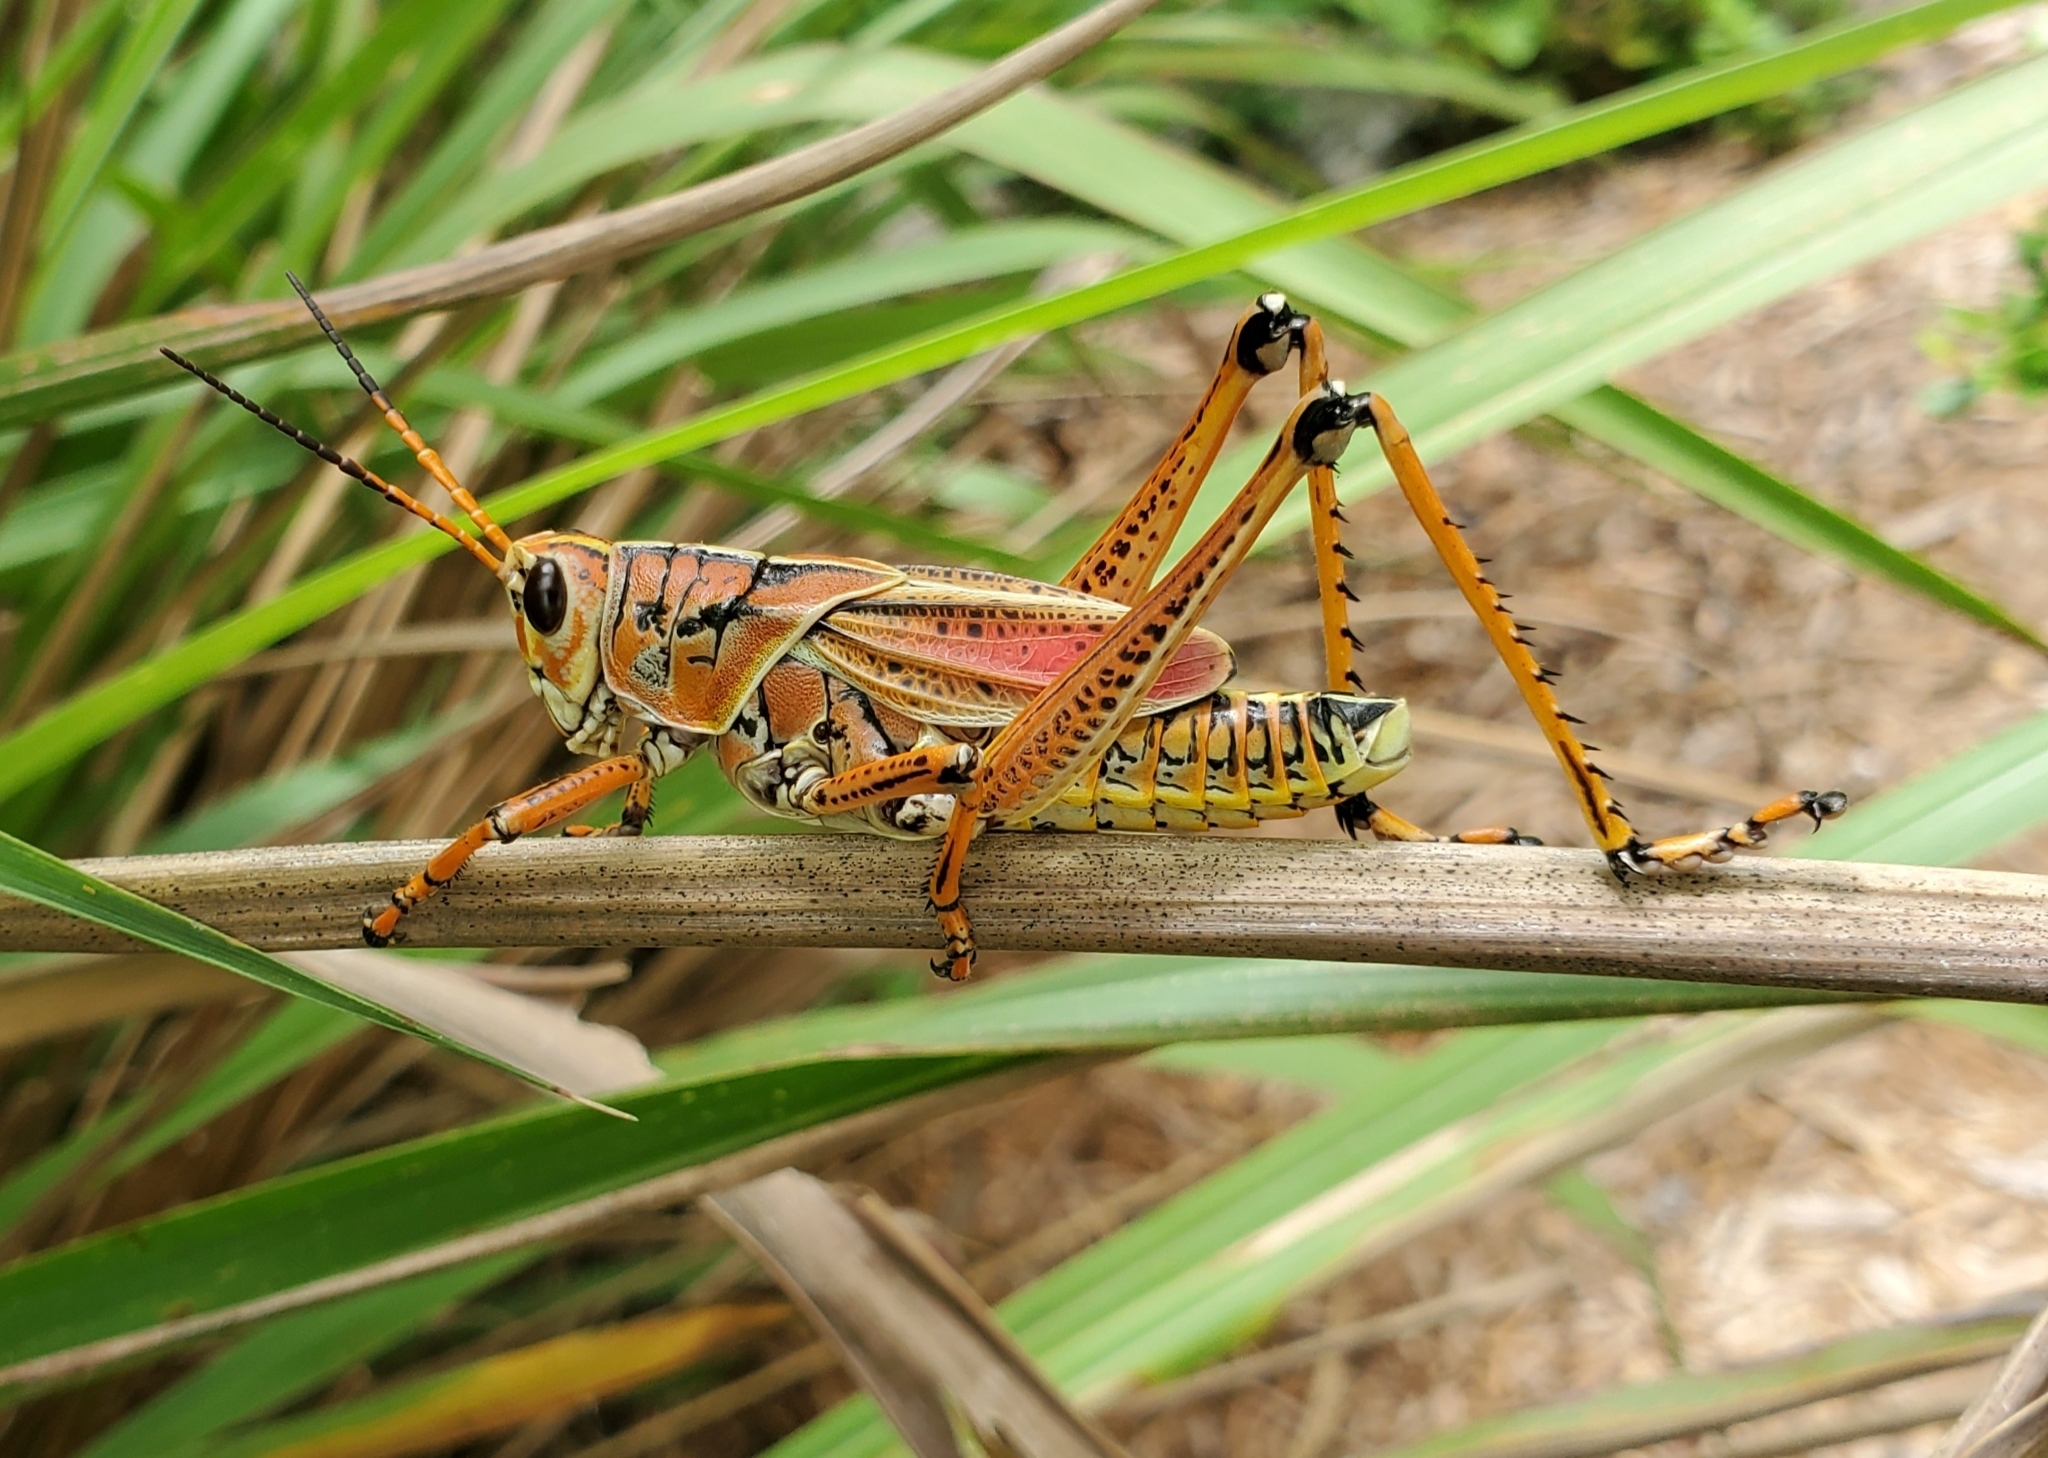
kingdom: Animalia
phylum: Arthropoda
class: Insecta
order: Orthoptera
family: Romaleidae
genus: Romalea
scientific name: Romalea microptera
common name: Eastern lubber grasshopper
